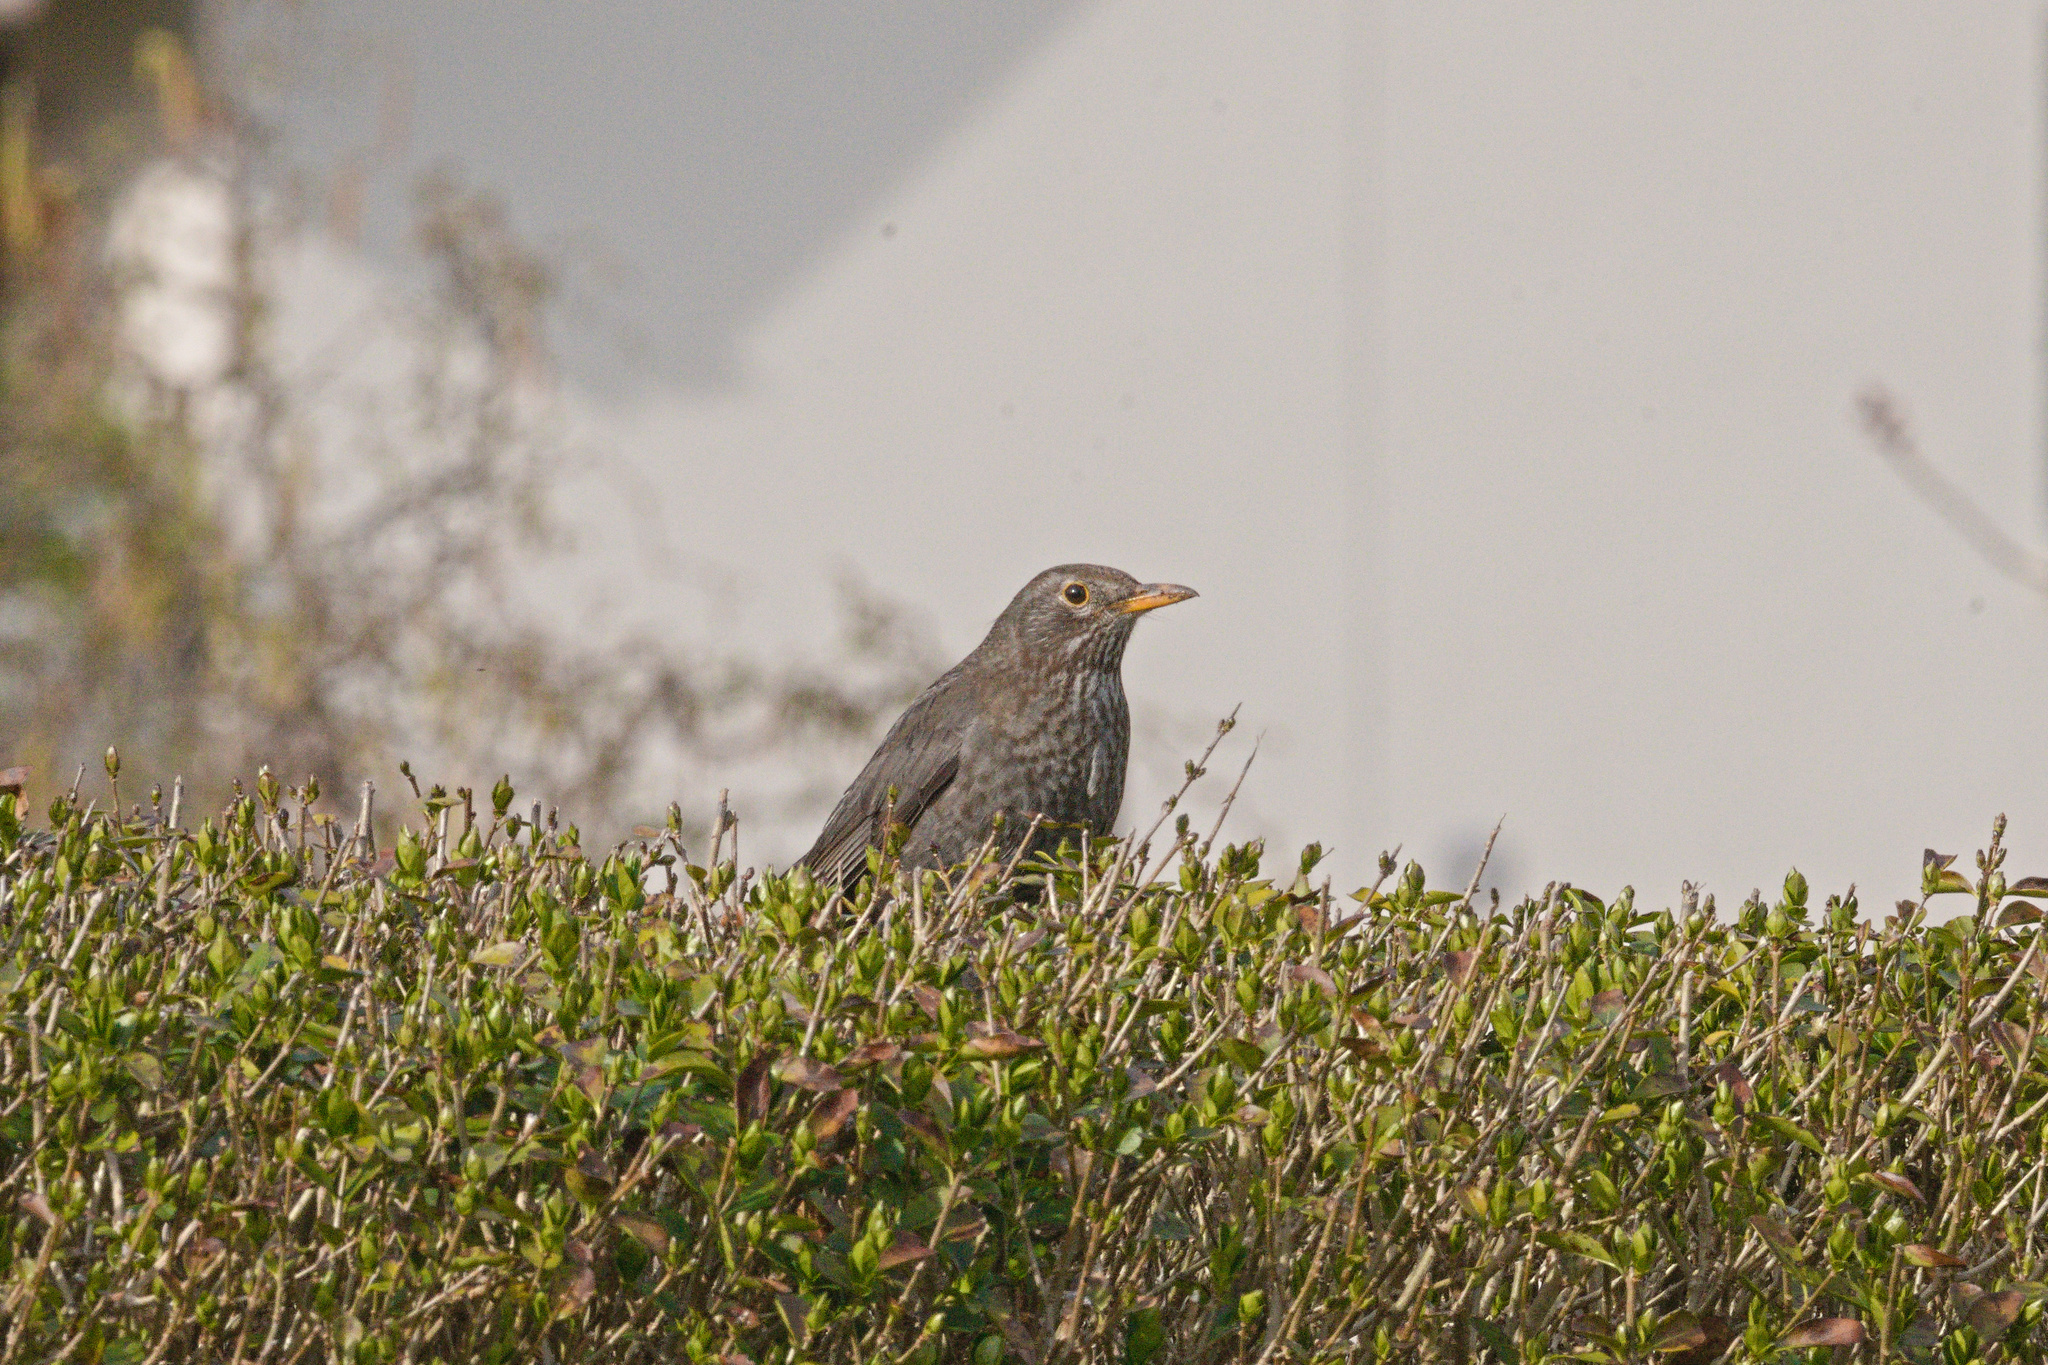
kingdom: Animalia
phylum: Chordata
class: Aves
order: Passeriformes
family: Turdidae
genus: Turdus
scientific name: Turdus merula
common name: Common blackbird
